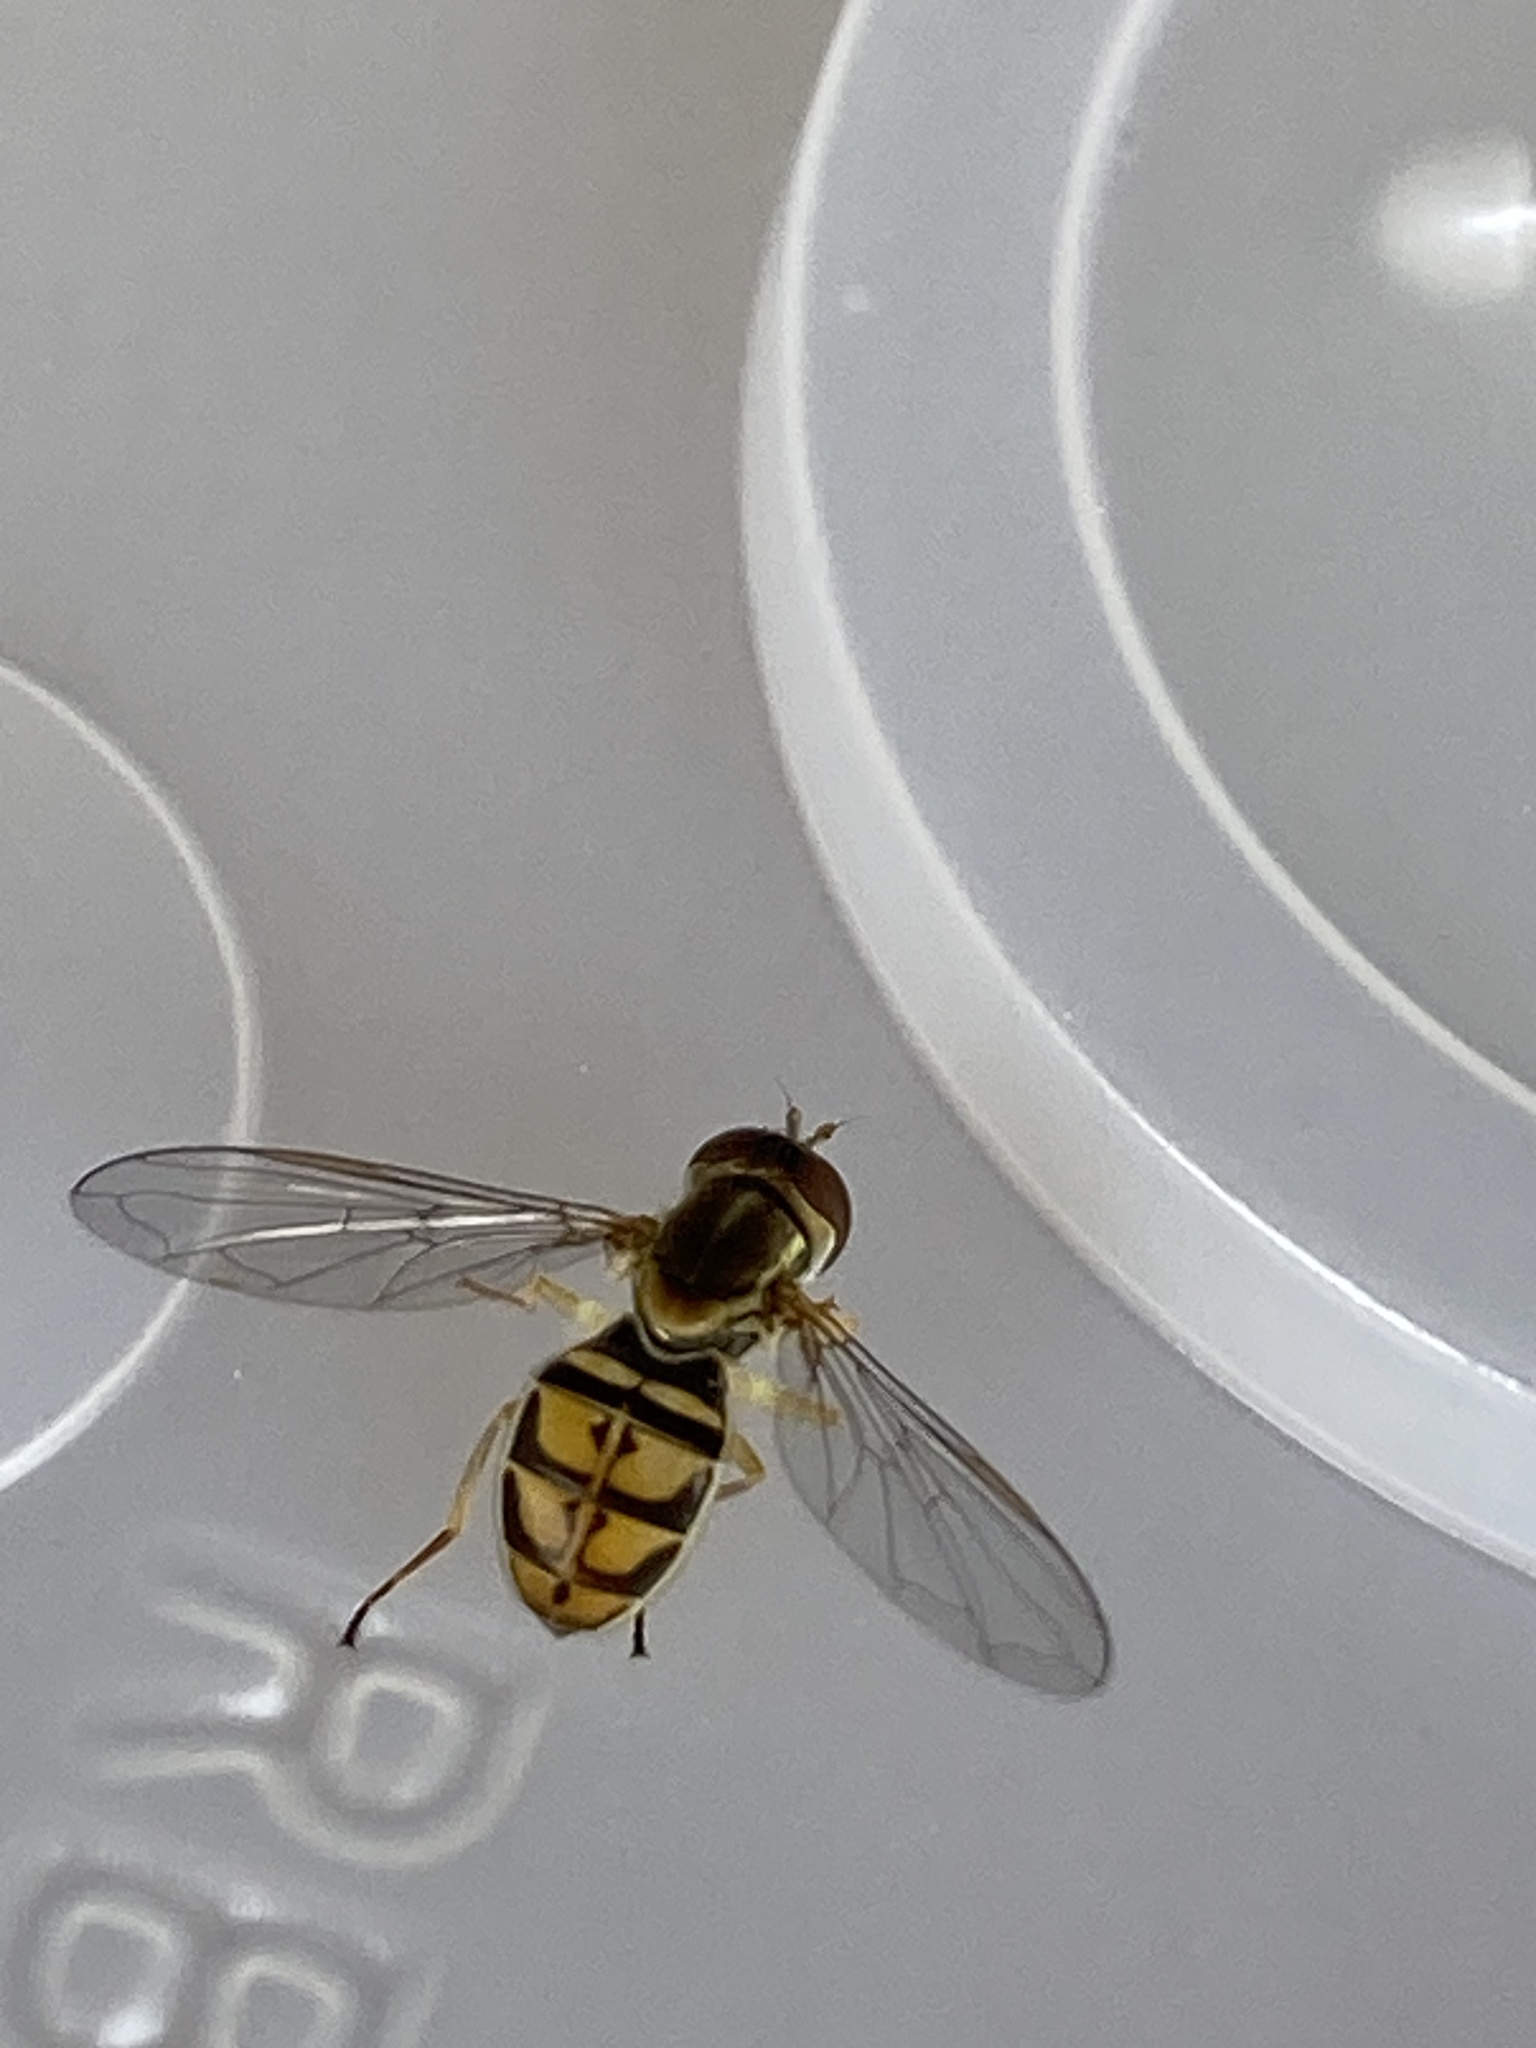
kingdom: Animalia
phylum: Arthropoda
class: Insecta
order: Diptera
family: Syrphidae
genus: Toxomerus
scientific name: Toxomerus marginatus
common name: Syrphid fly
